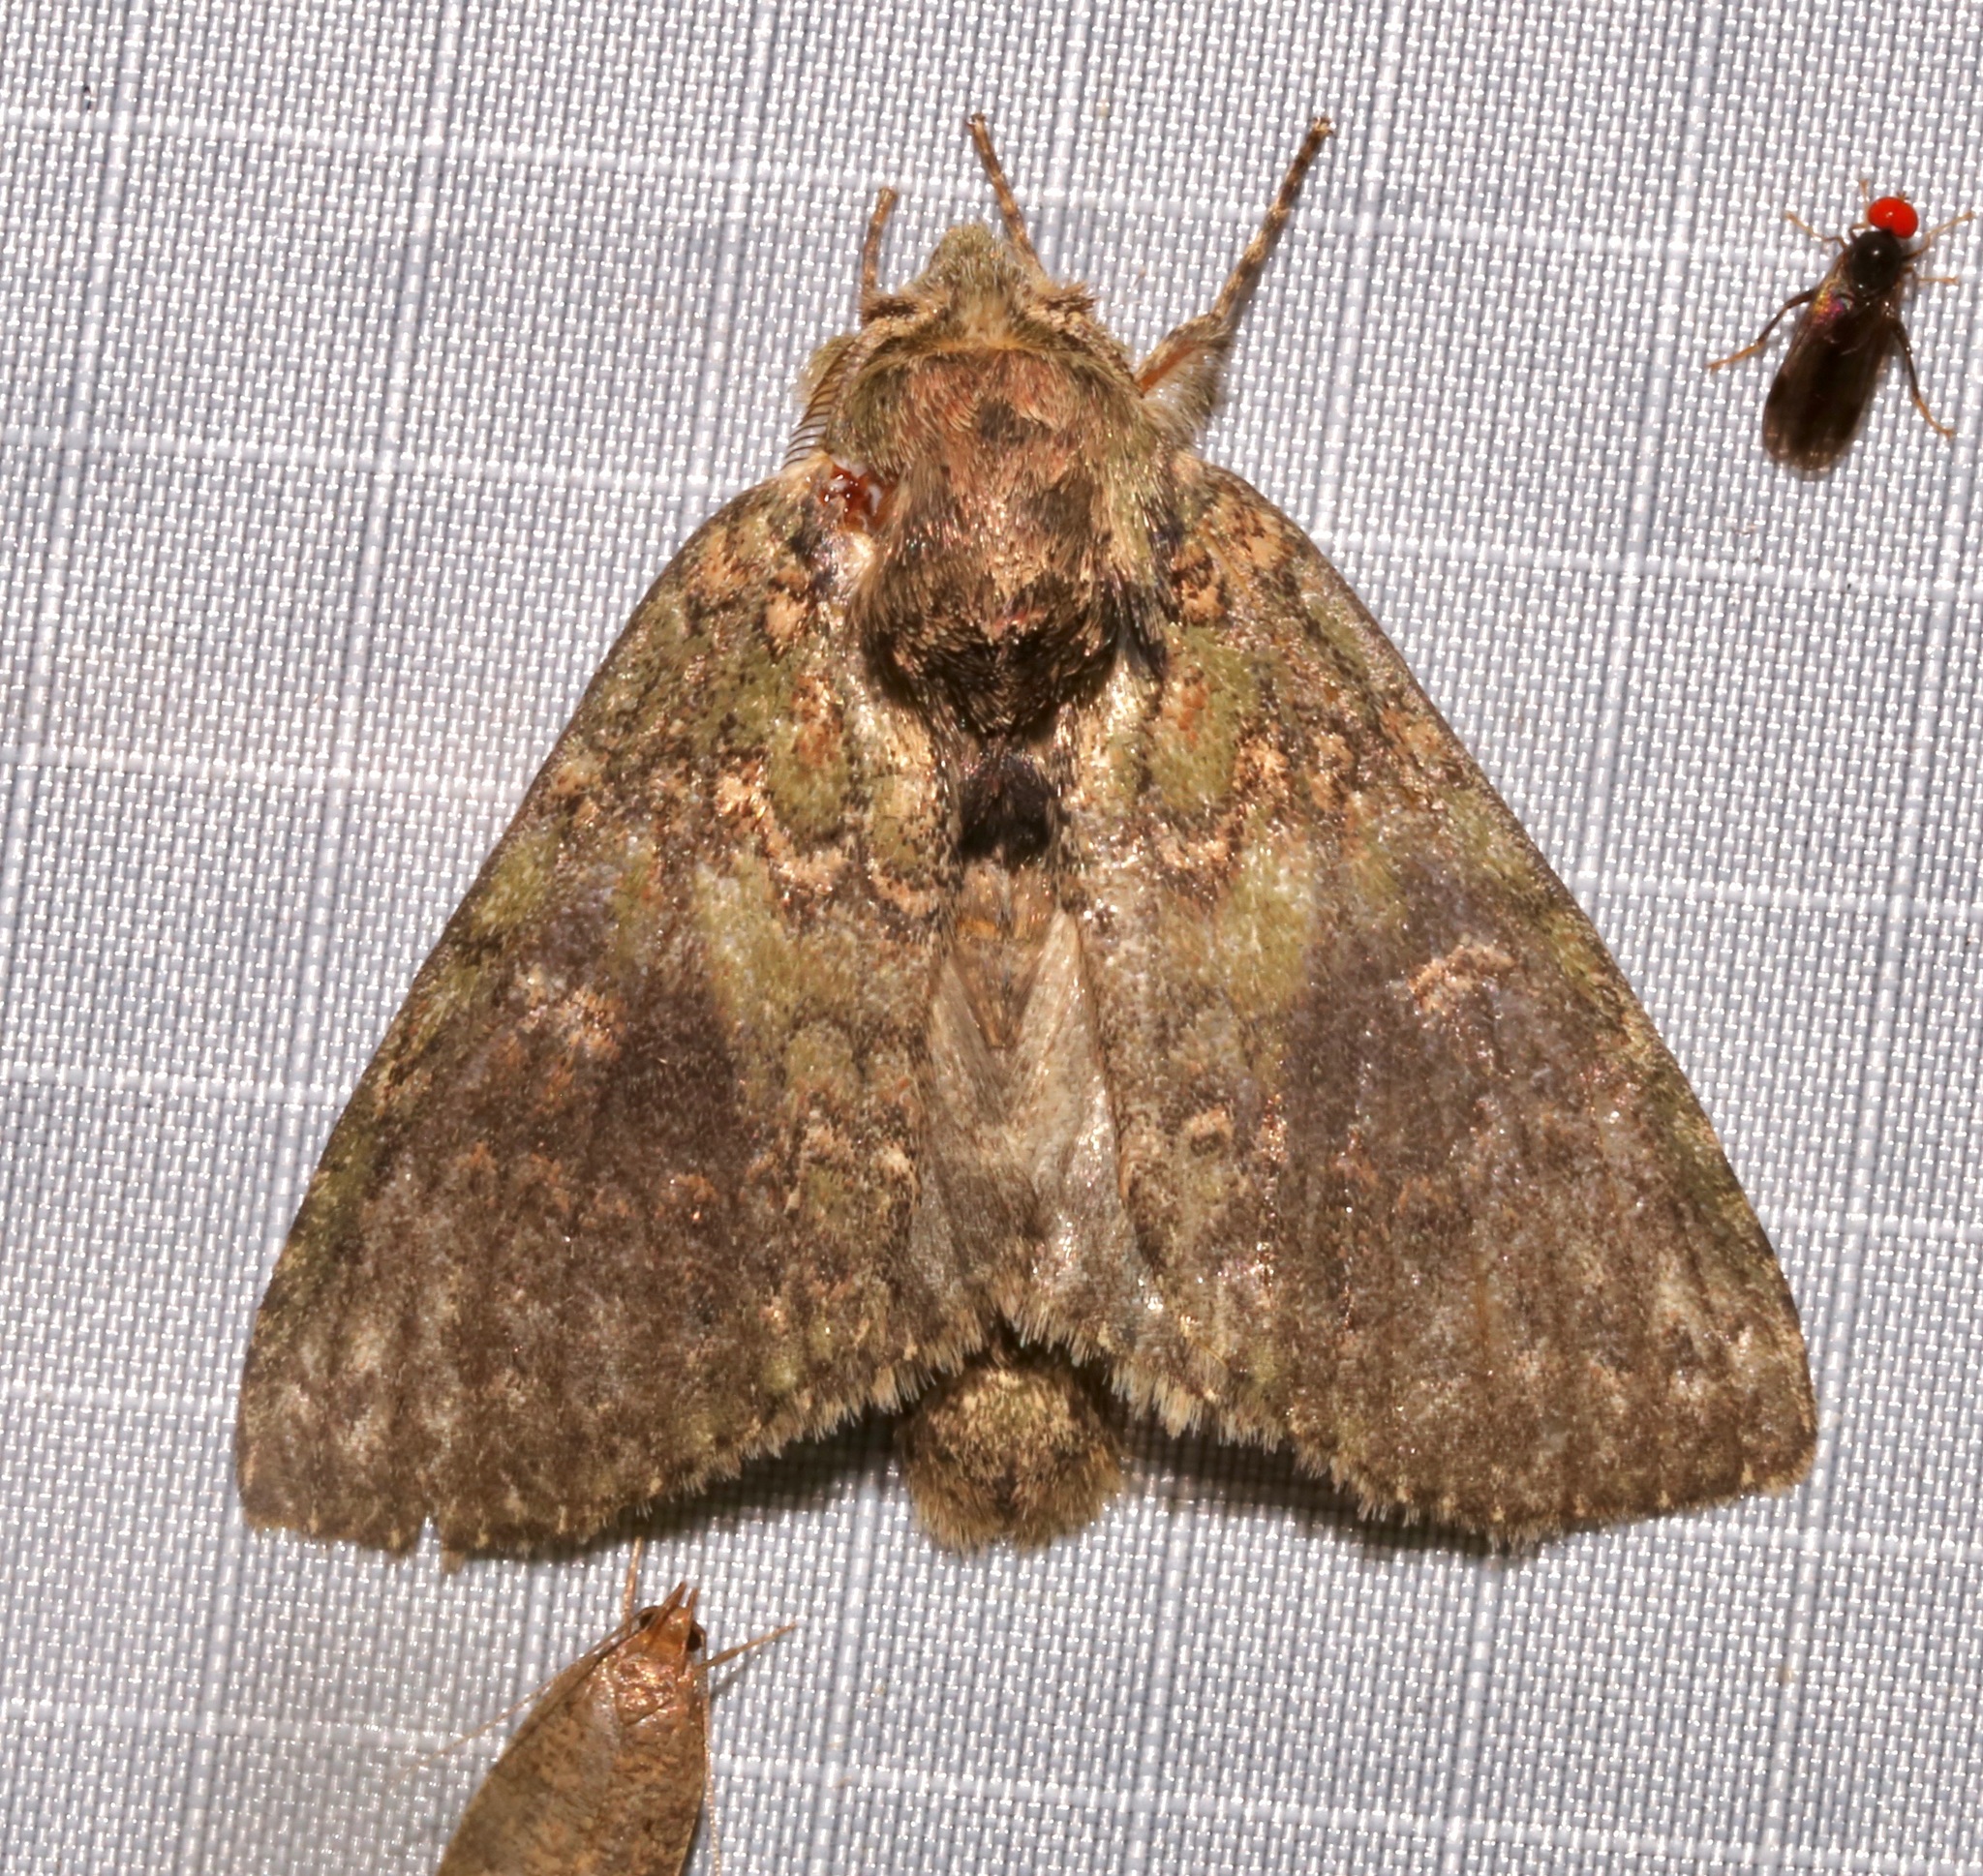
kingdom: Animalia
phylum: Arthropoda
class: Insecta
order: Lepidoptera
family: Notodontidae
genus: Disphragis
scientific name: Disphragis Cecrita biundata
